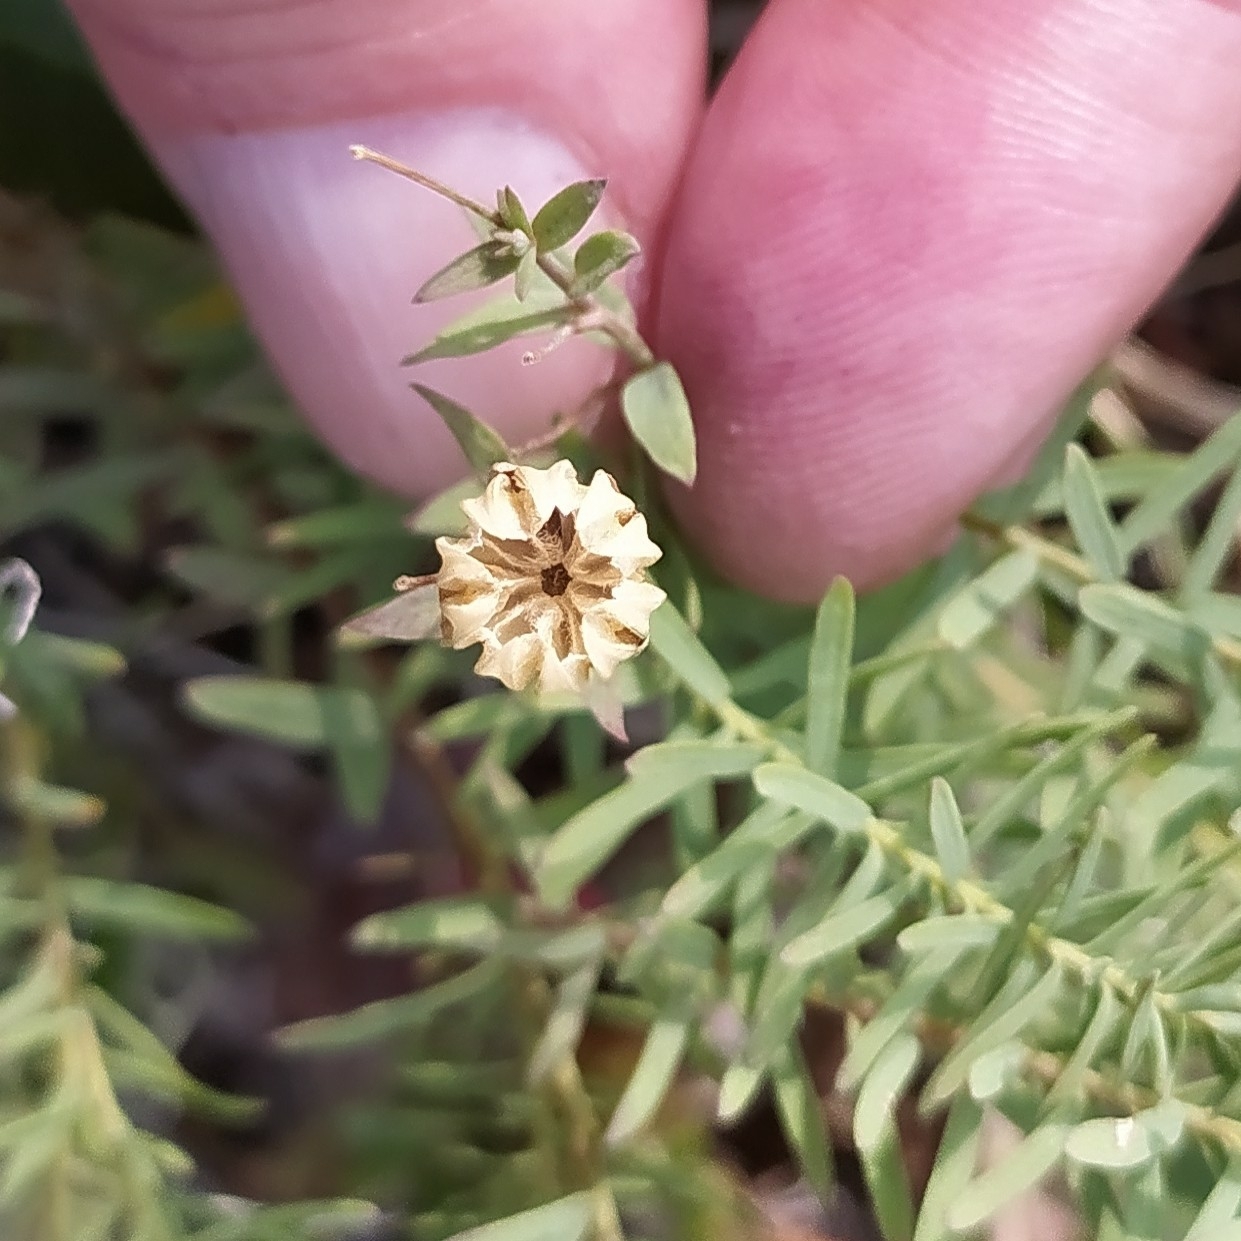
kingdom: Plantae
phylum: Tracheophyta
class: Magnoliopsida
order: Malpighiales
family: Linaceae
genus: Linum
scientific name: Linum komarovii
